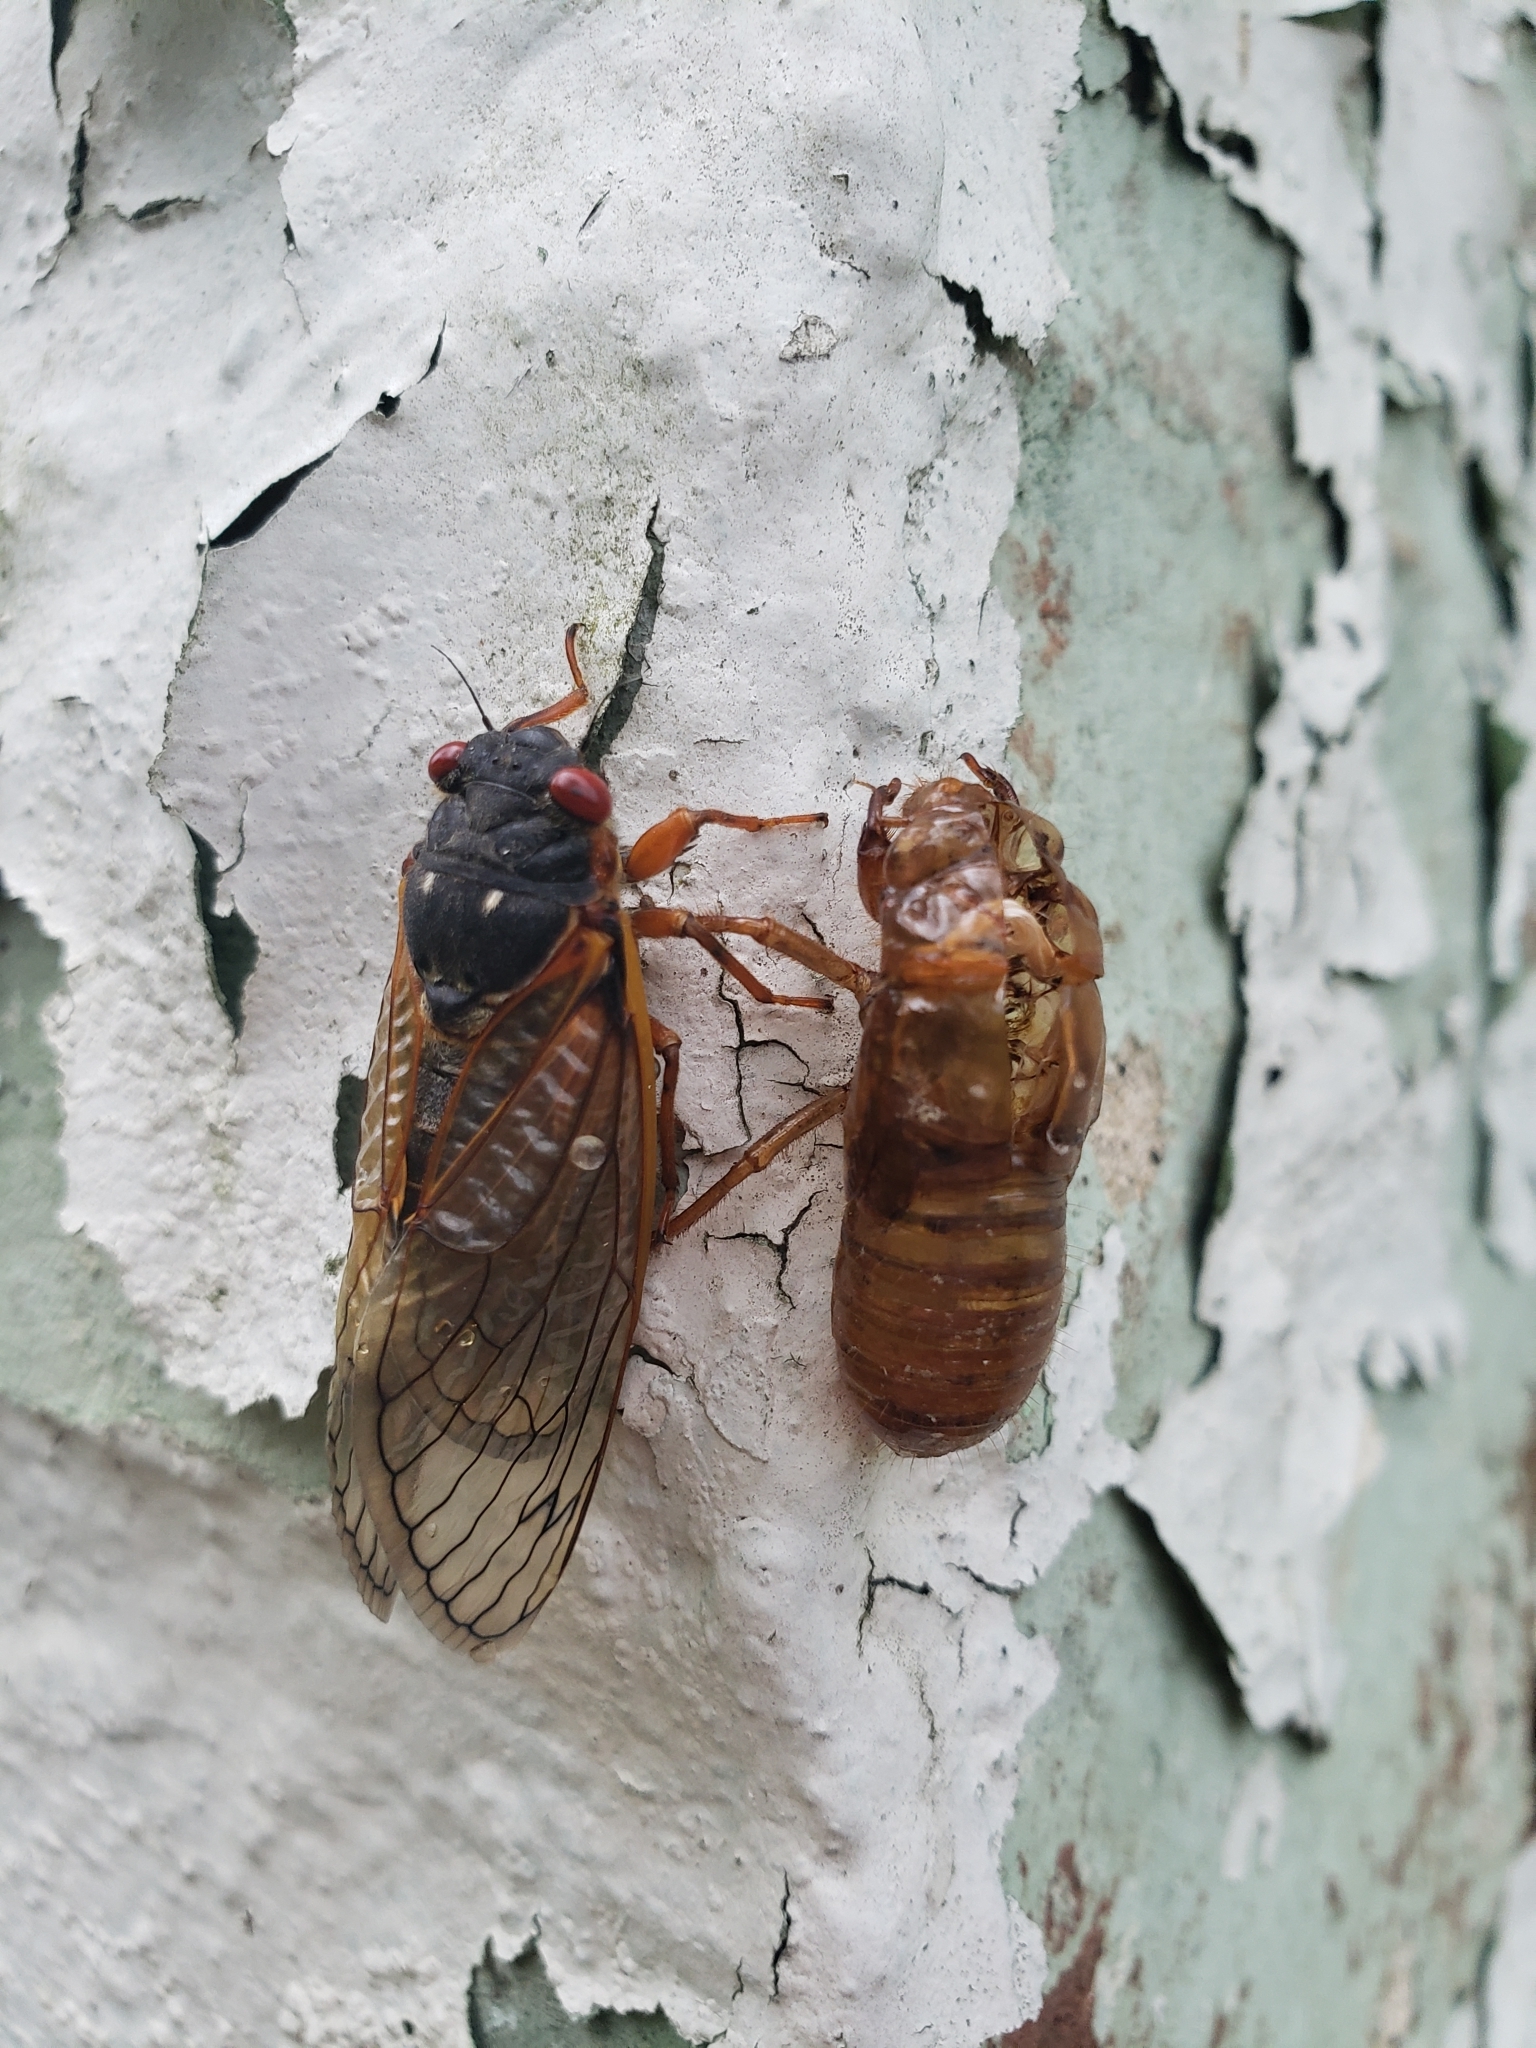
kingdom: Animalia
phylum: Arthropoda
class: Insecta
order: Hemiptera
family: Cicadidae
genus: Magicicada
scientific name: Magicicada septendecim
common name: Periodical cicada
